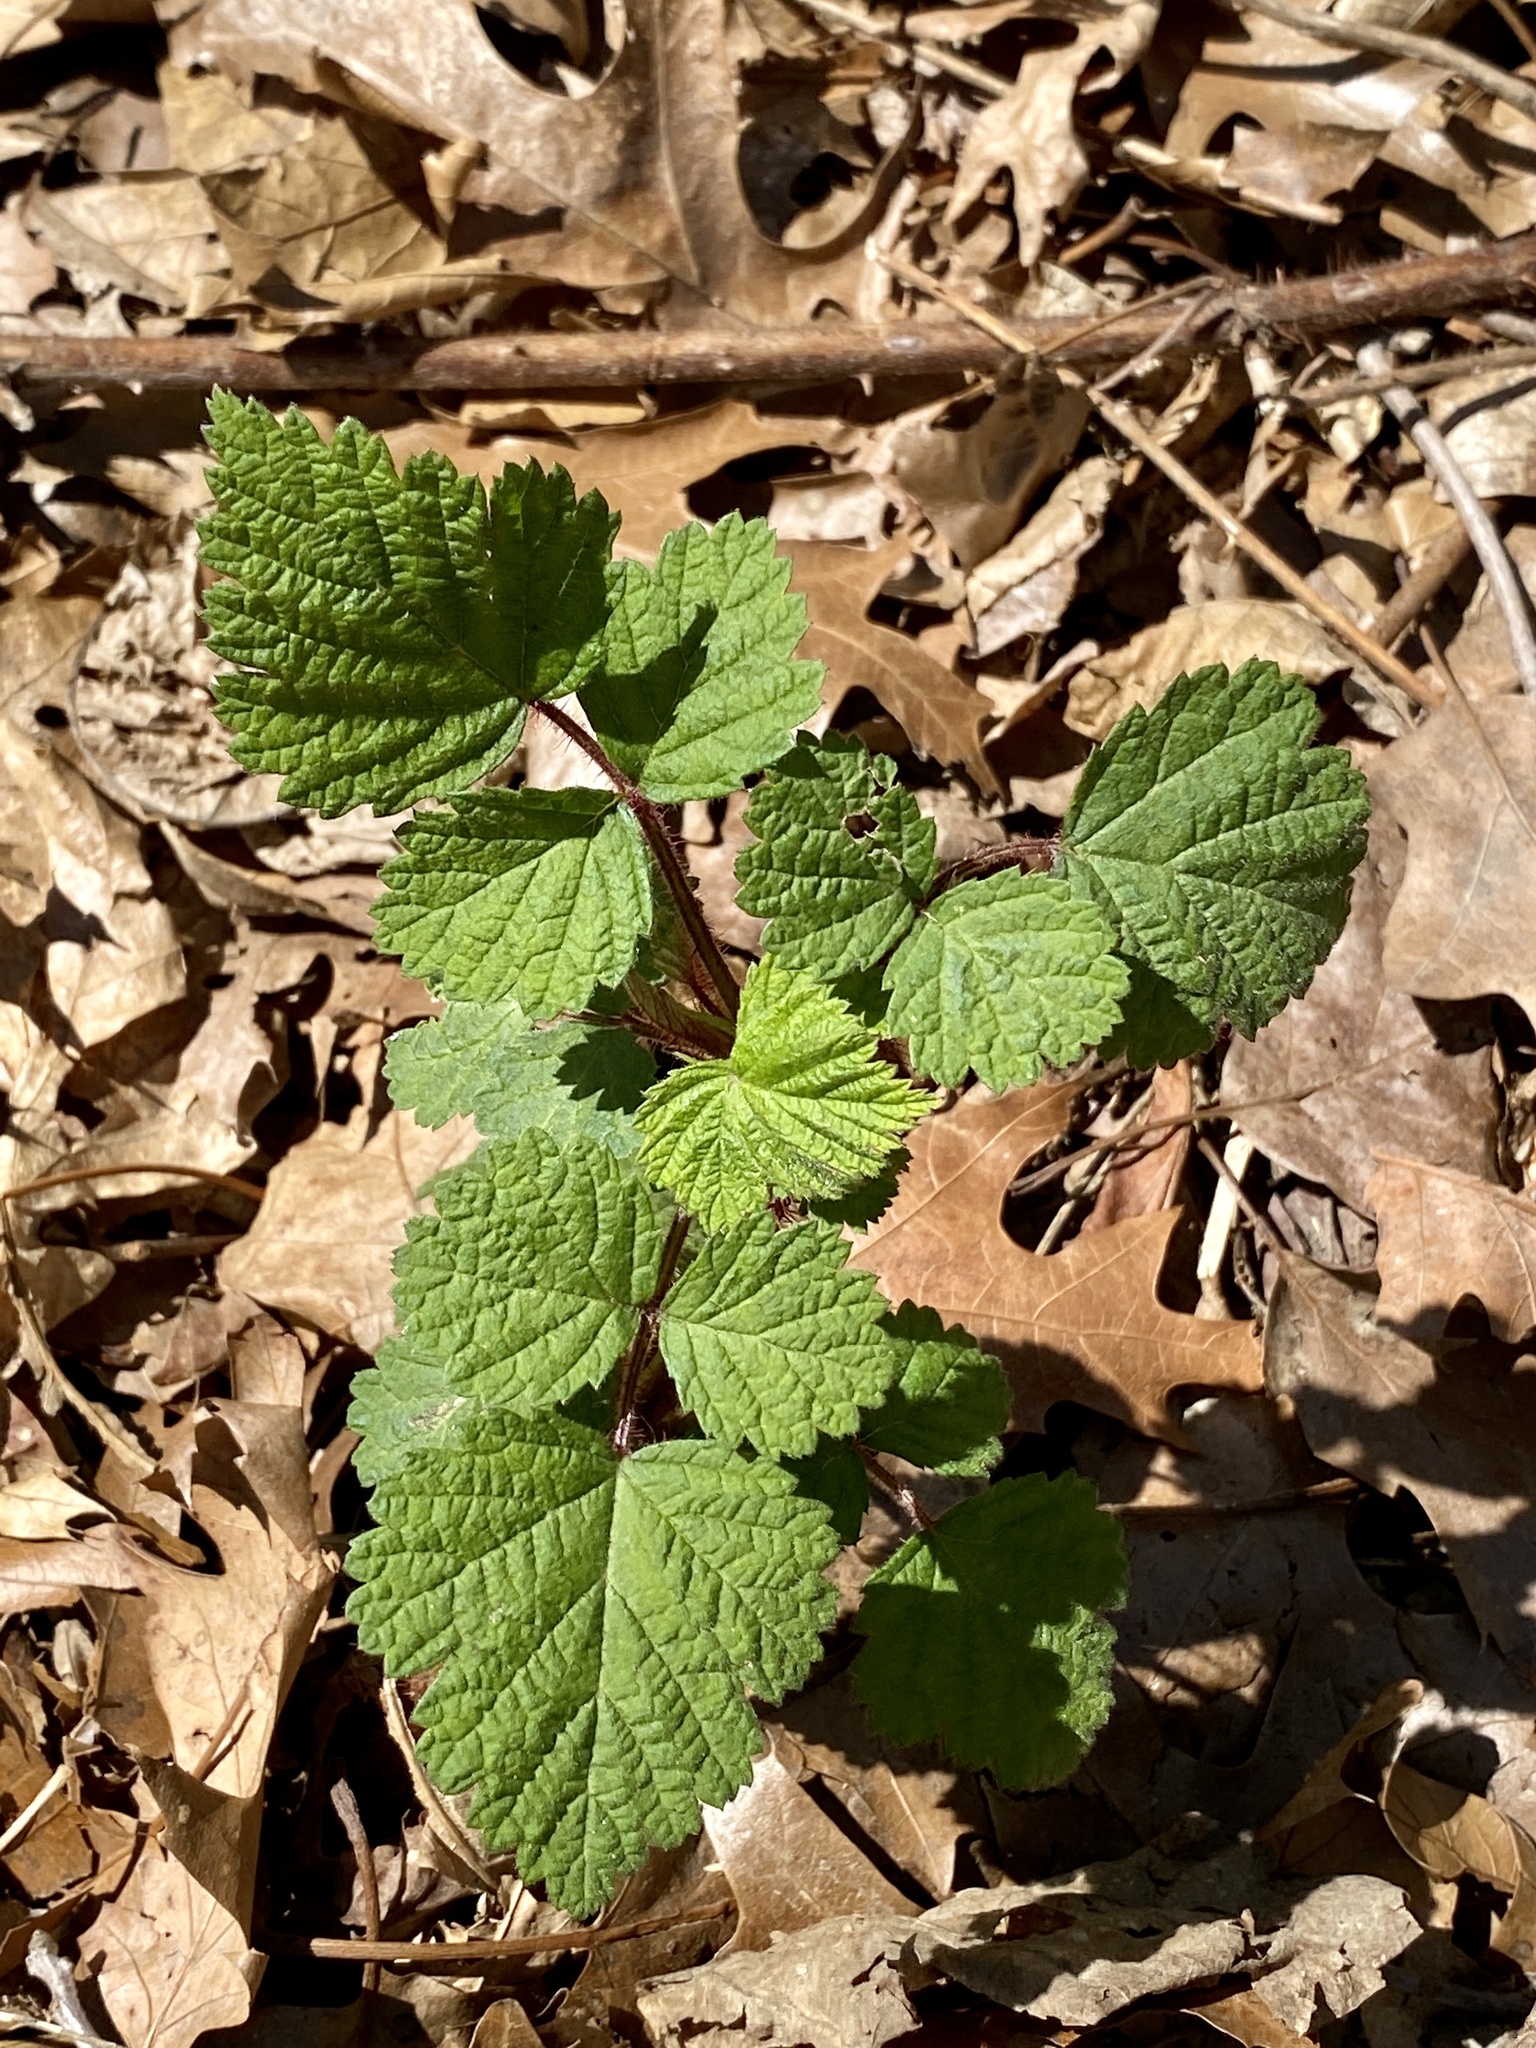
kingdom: Plantae
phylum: Tracheophyta
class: Magnoliopsida
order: Rosales
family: Rosaceae
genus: Rubus
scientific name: Rubus phoenicolasius
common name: Japanese wineberry
